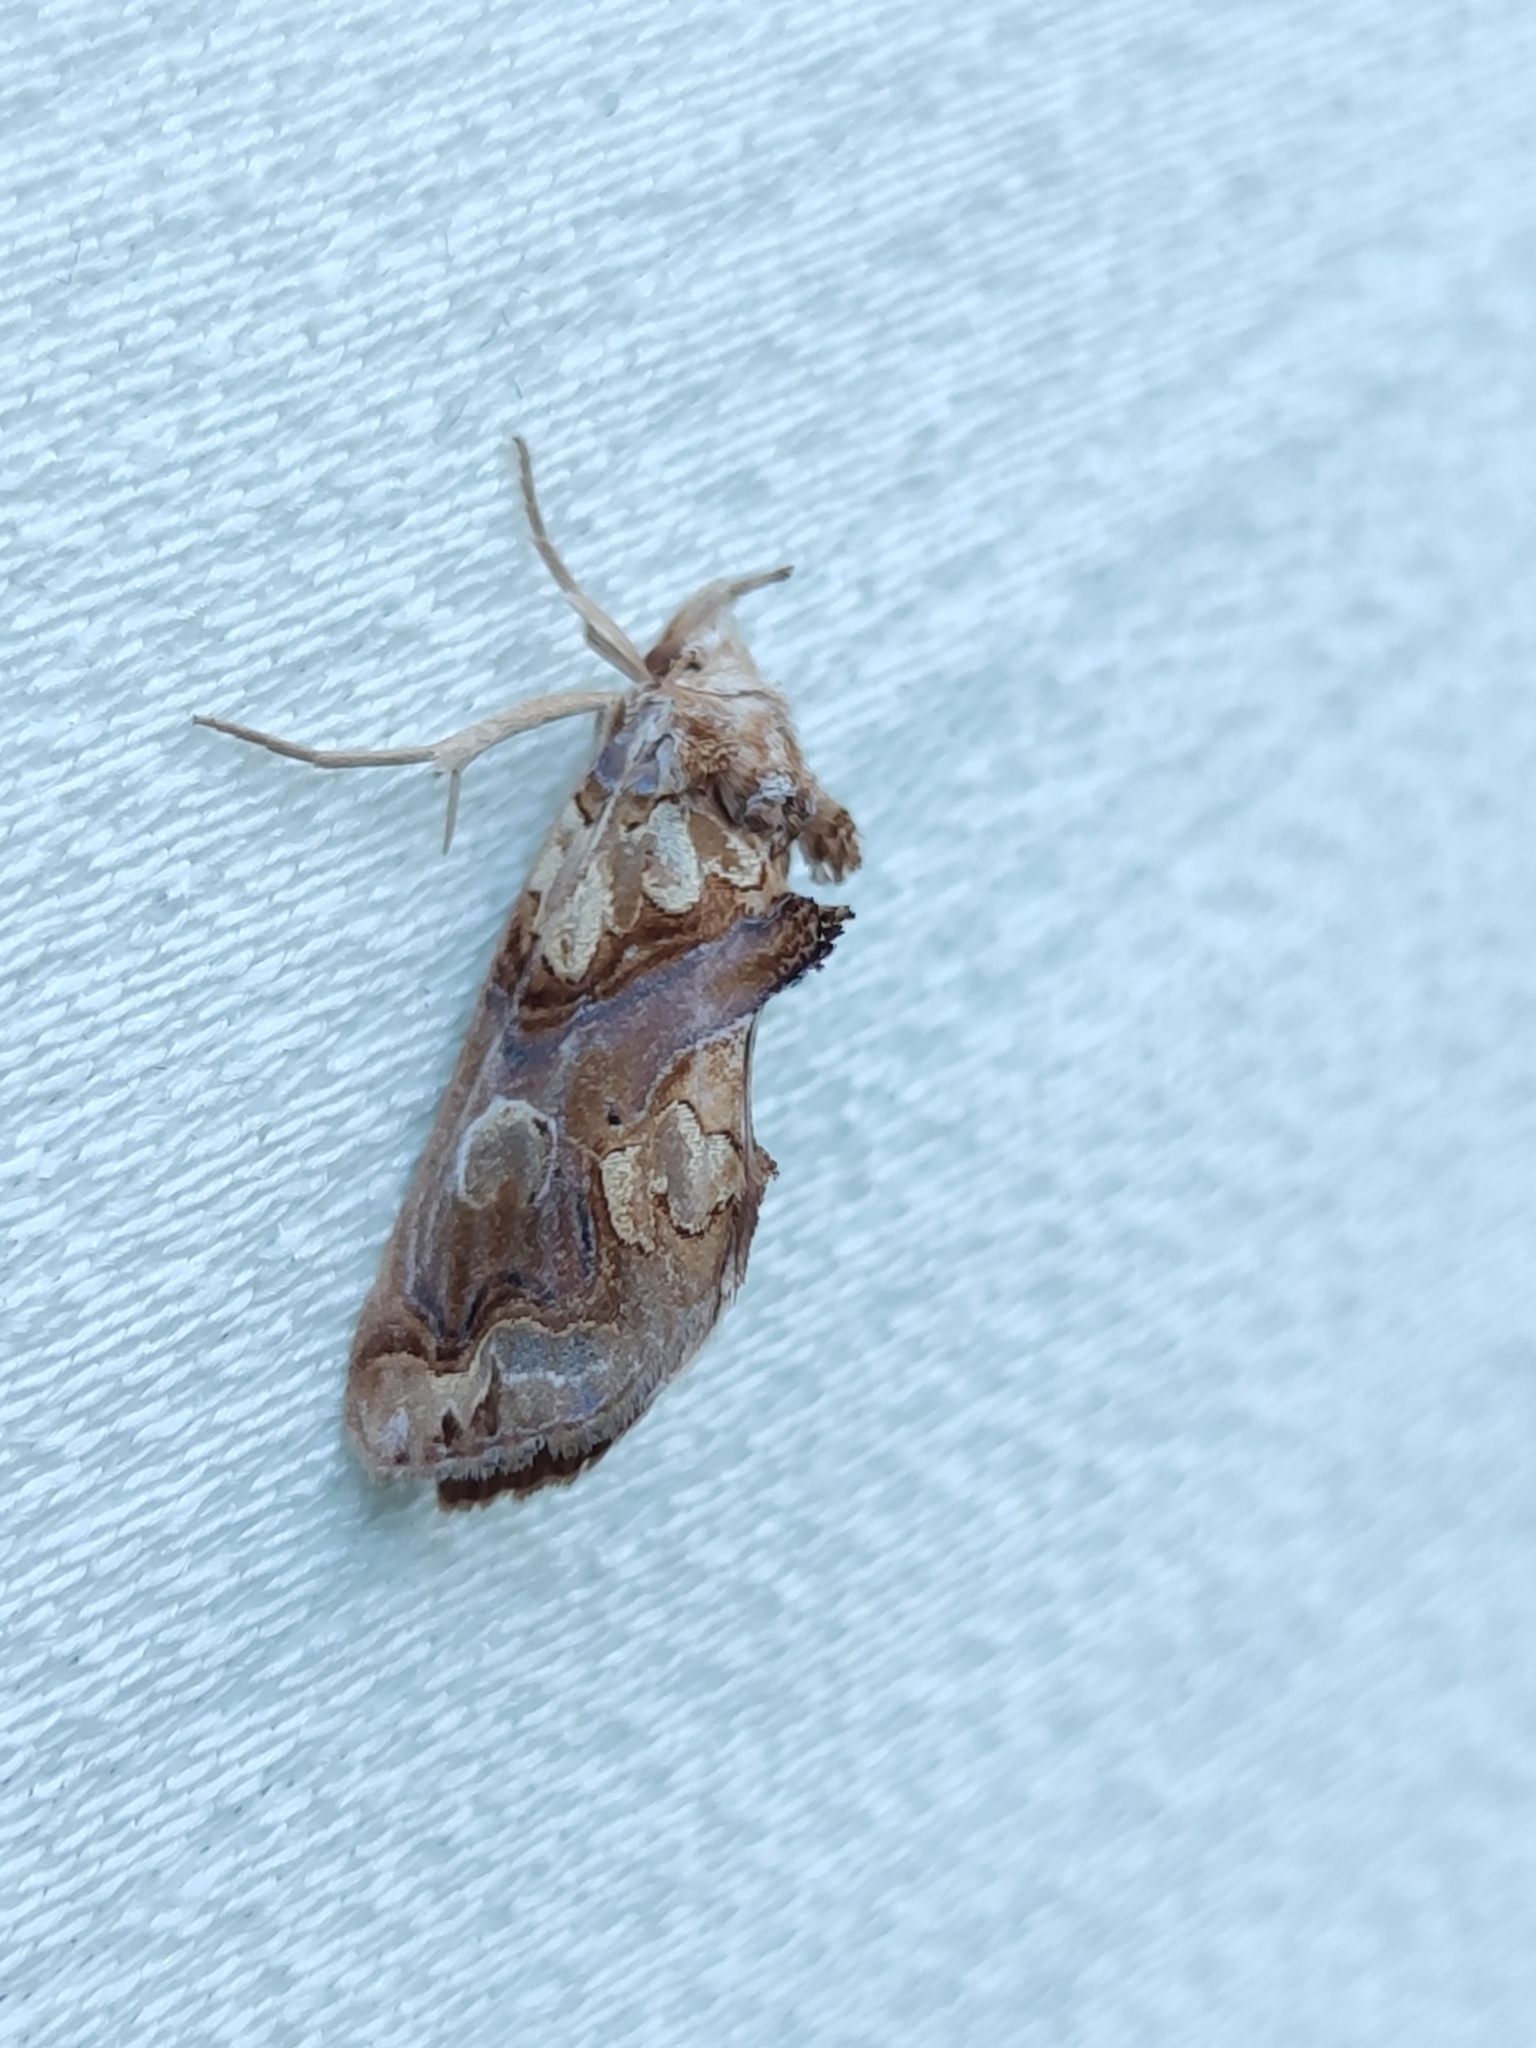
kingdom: Animalia
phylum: Arthropoda
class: Insecta
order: Lepidoptera
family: Erebidae
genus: Plusiodonta
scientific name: Plusiodonta compressipalpis
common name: Moonseed moth
